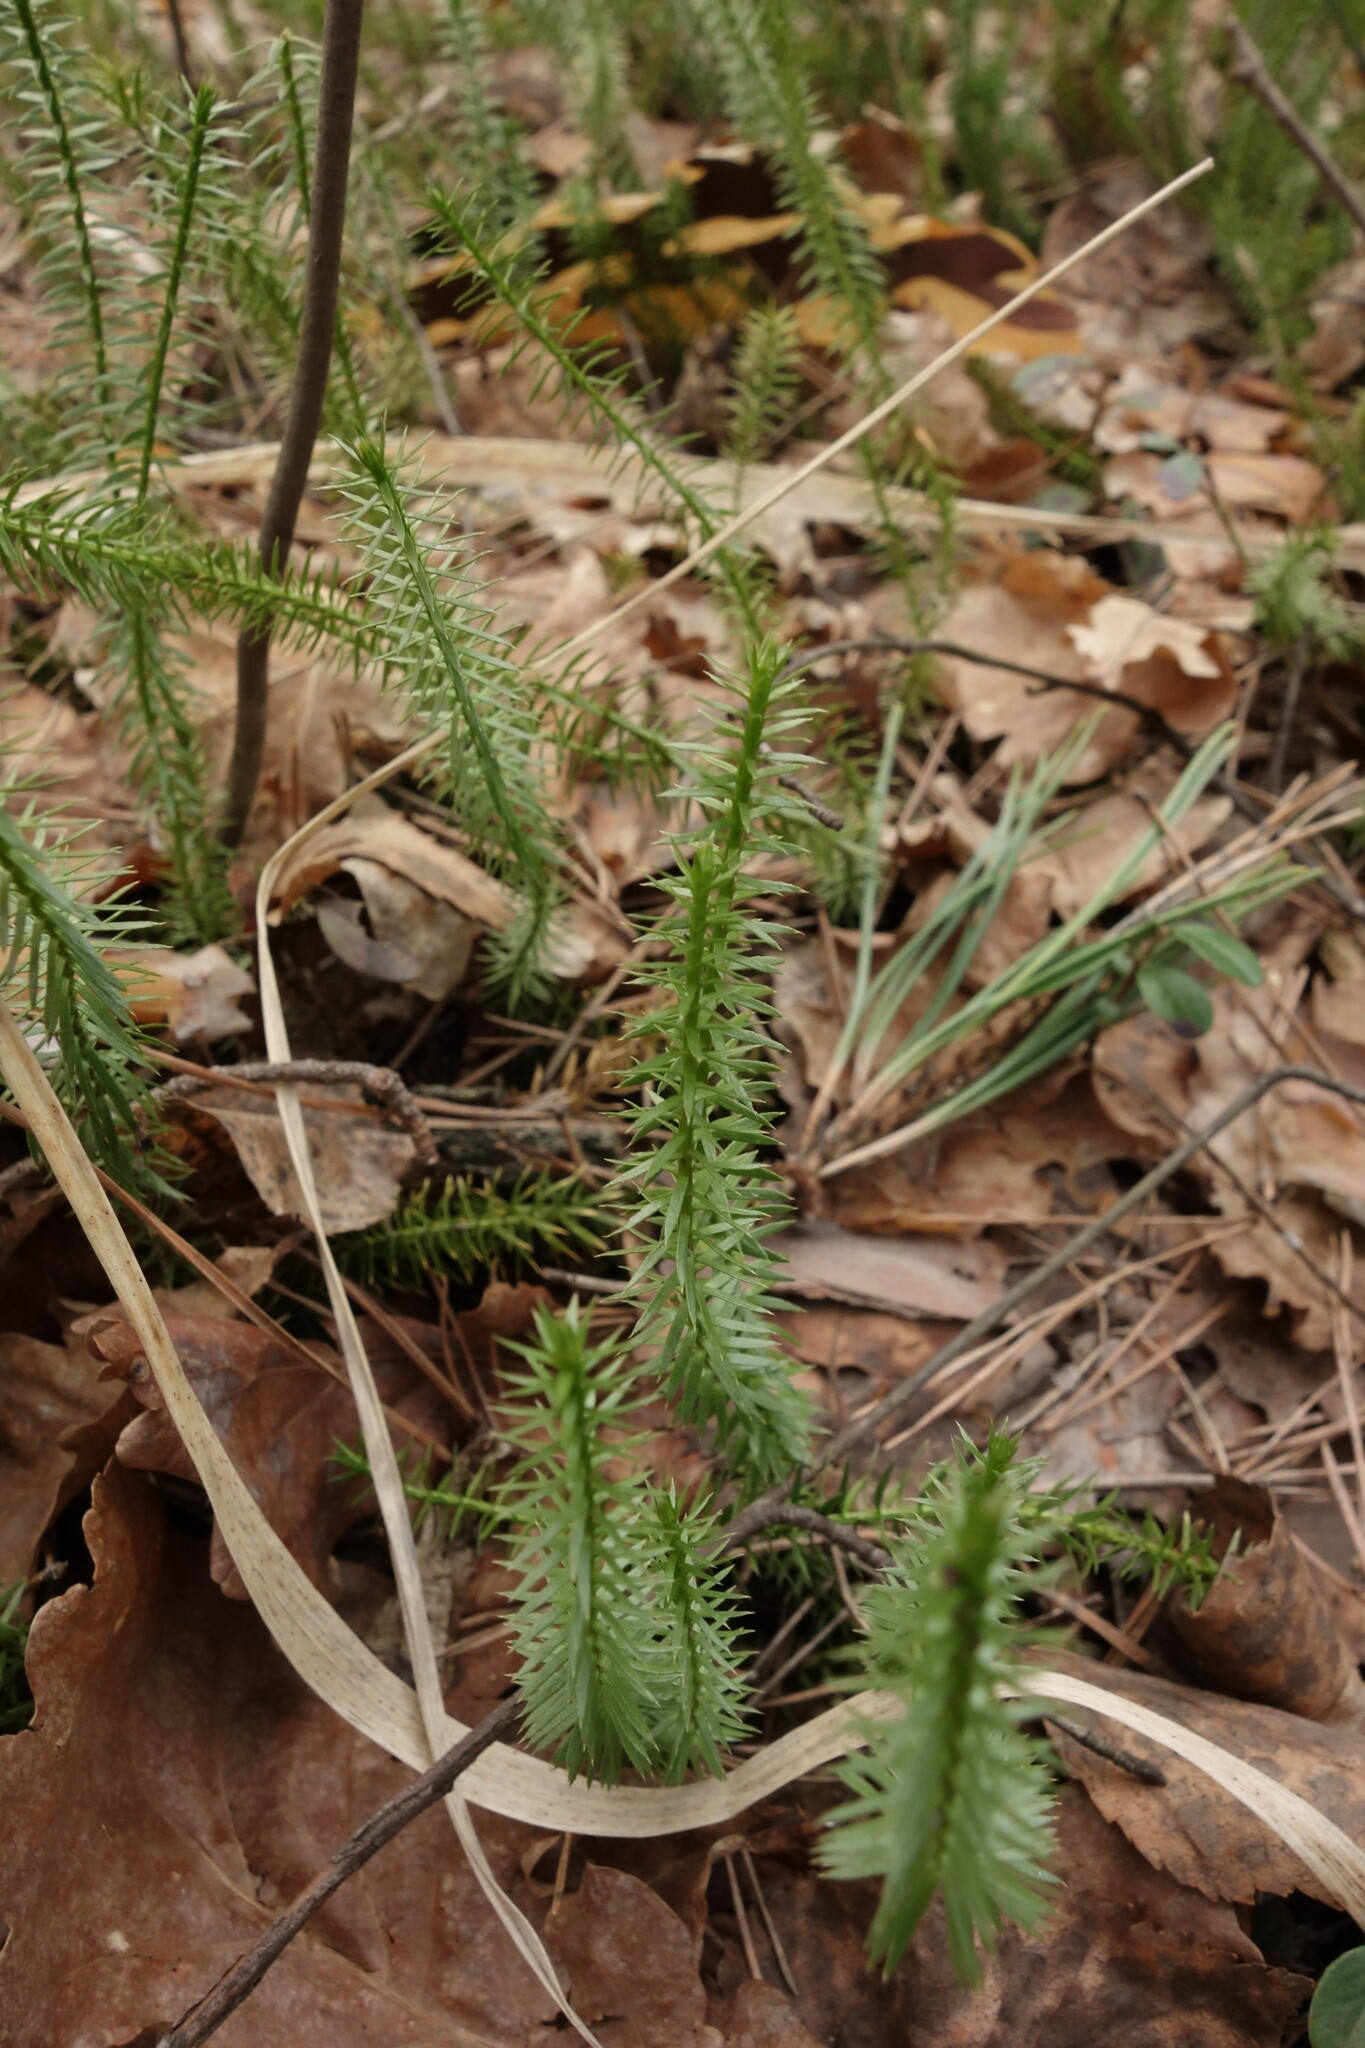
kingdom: Plantae
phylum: Tracheophyta
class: Lycopodiopsida
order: Lycopodiales
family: Lycopodiaceae
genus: Spinulum
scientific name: Spinulum annotinum
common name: Interrupted club-moss
